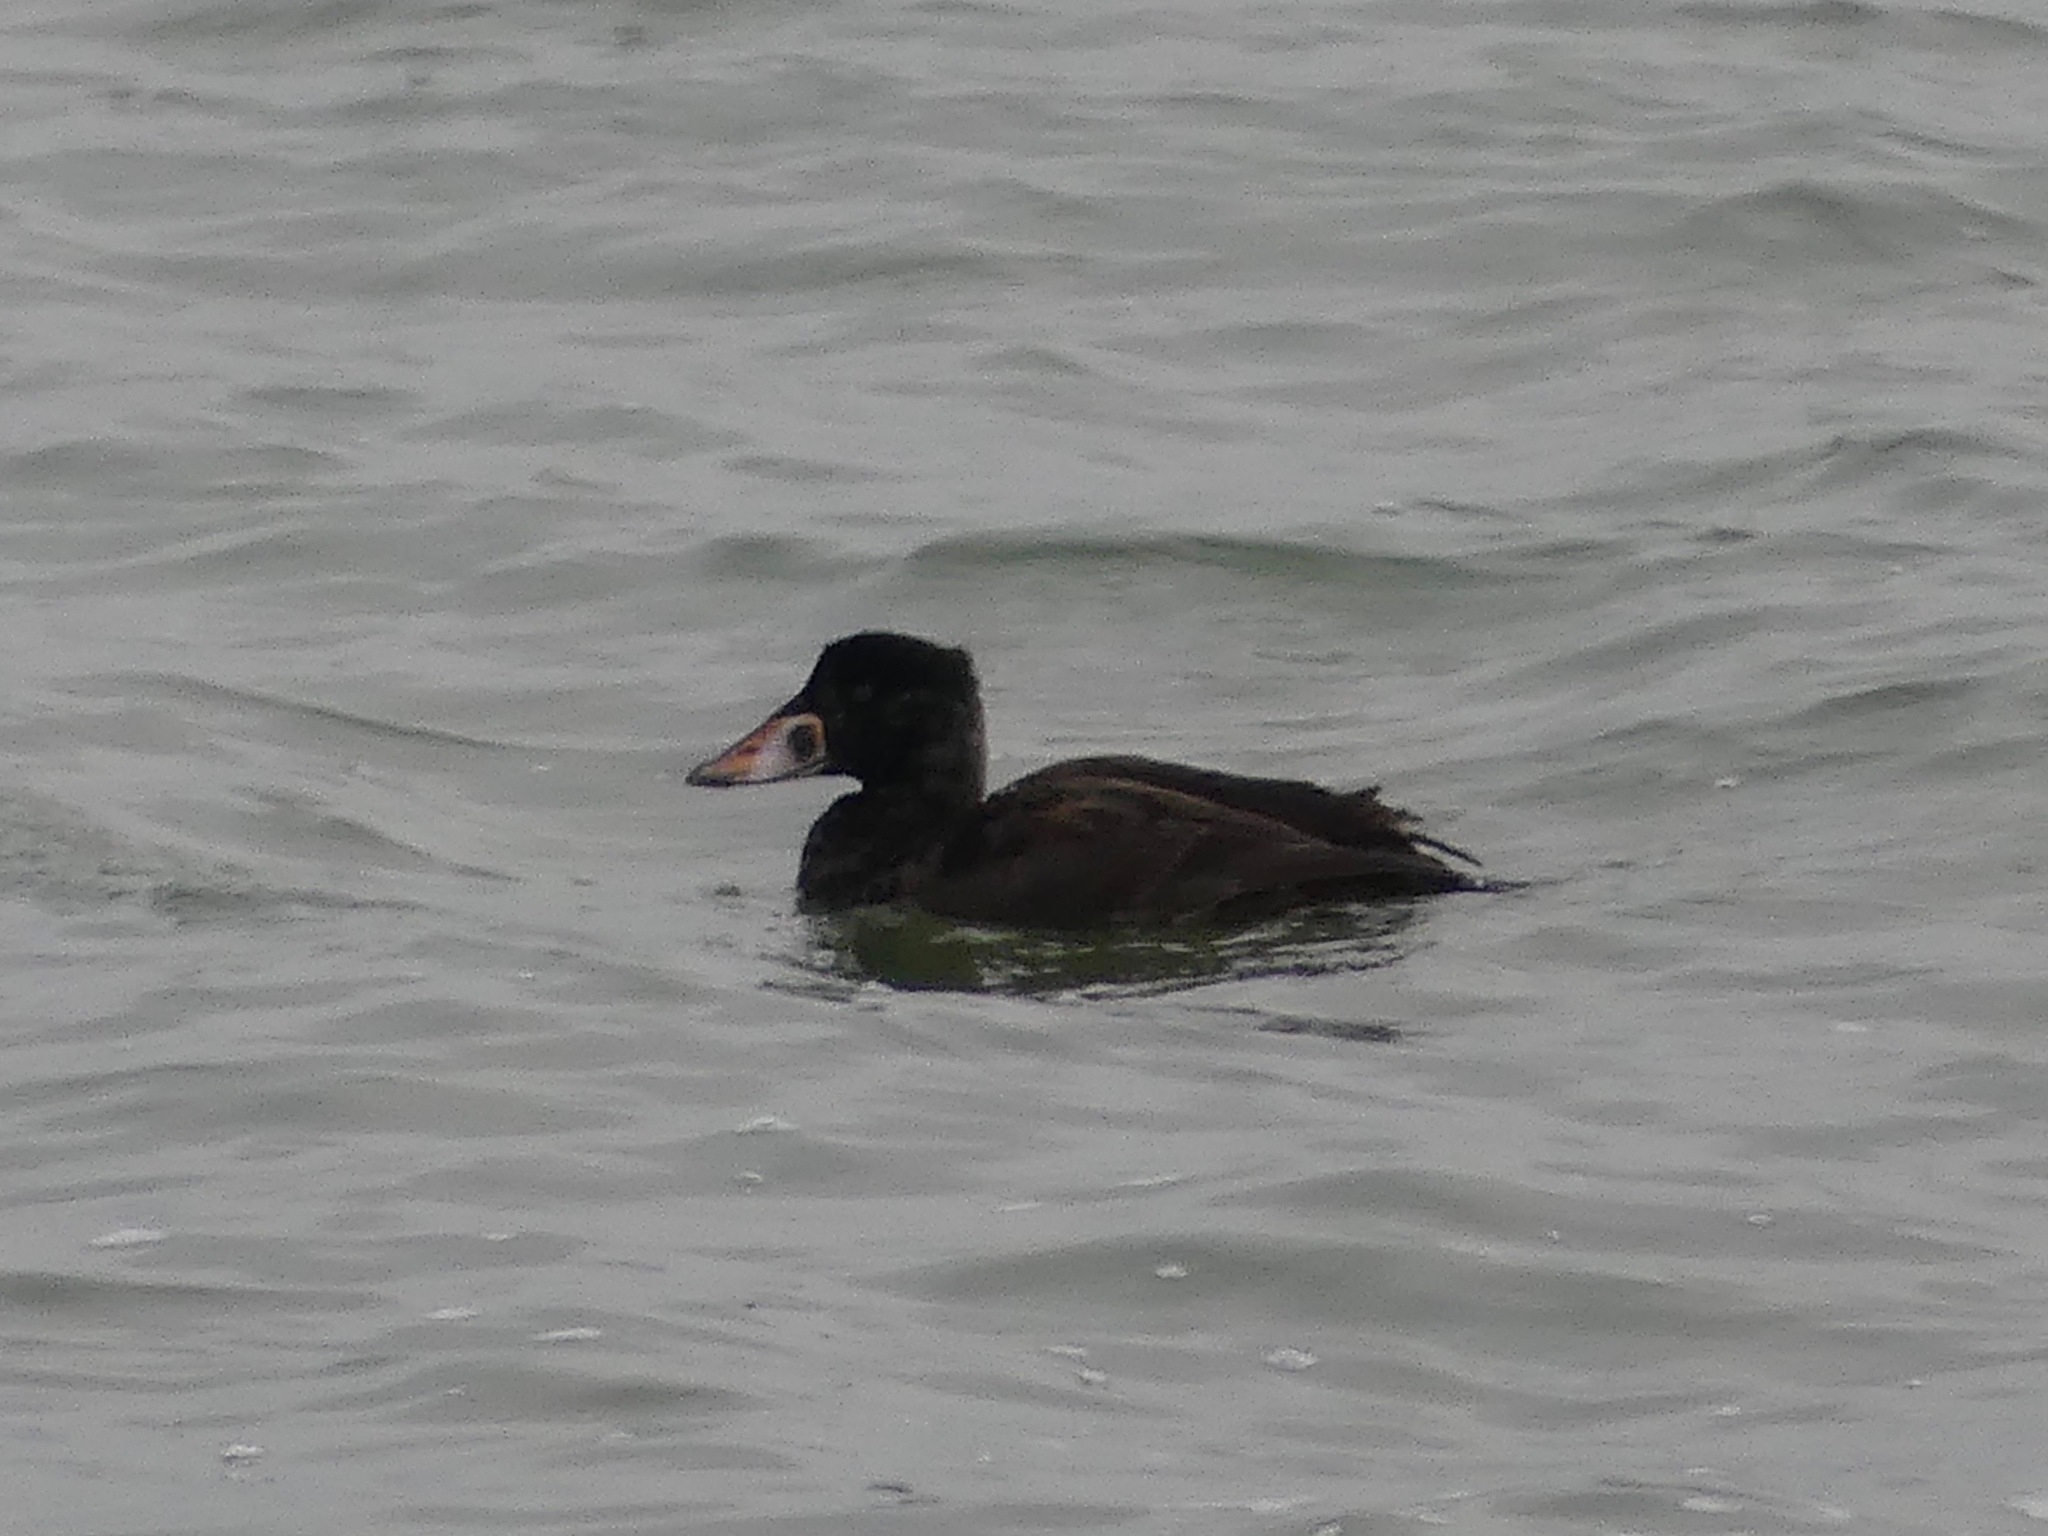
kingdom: Animalia
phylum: Chordata
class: Aves
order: Anseriformes
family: Anatidae
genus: Melanitta
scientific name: Melanitta perspicillata
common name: Surf scoter
